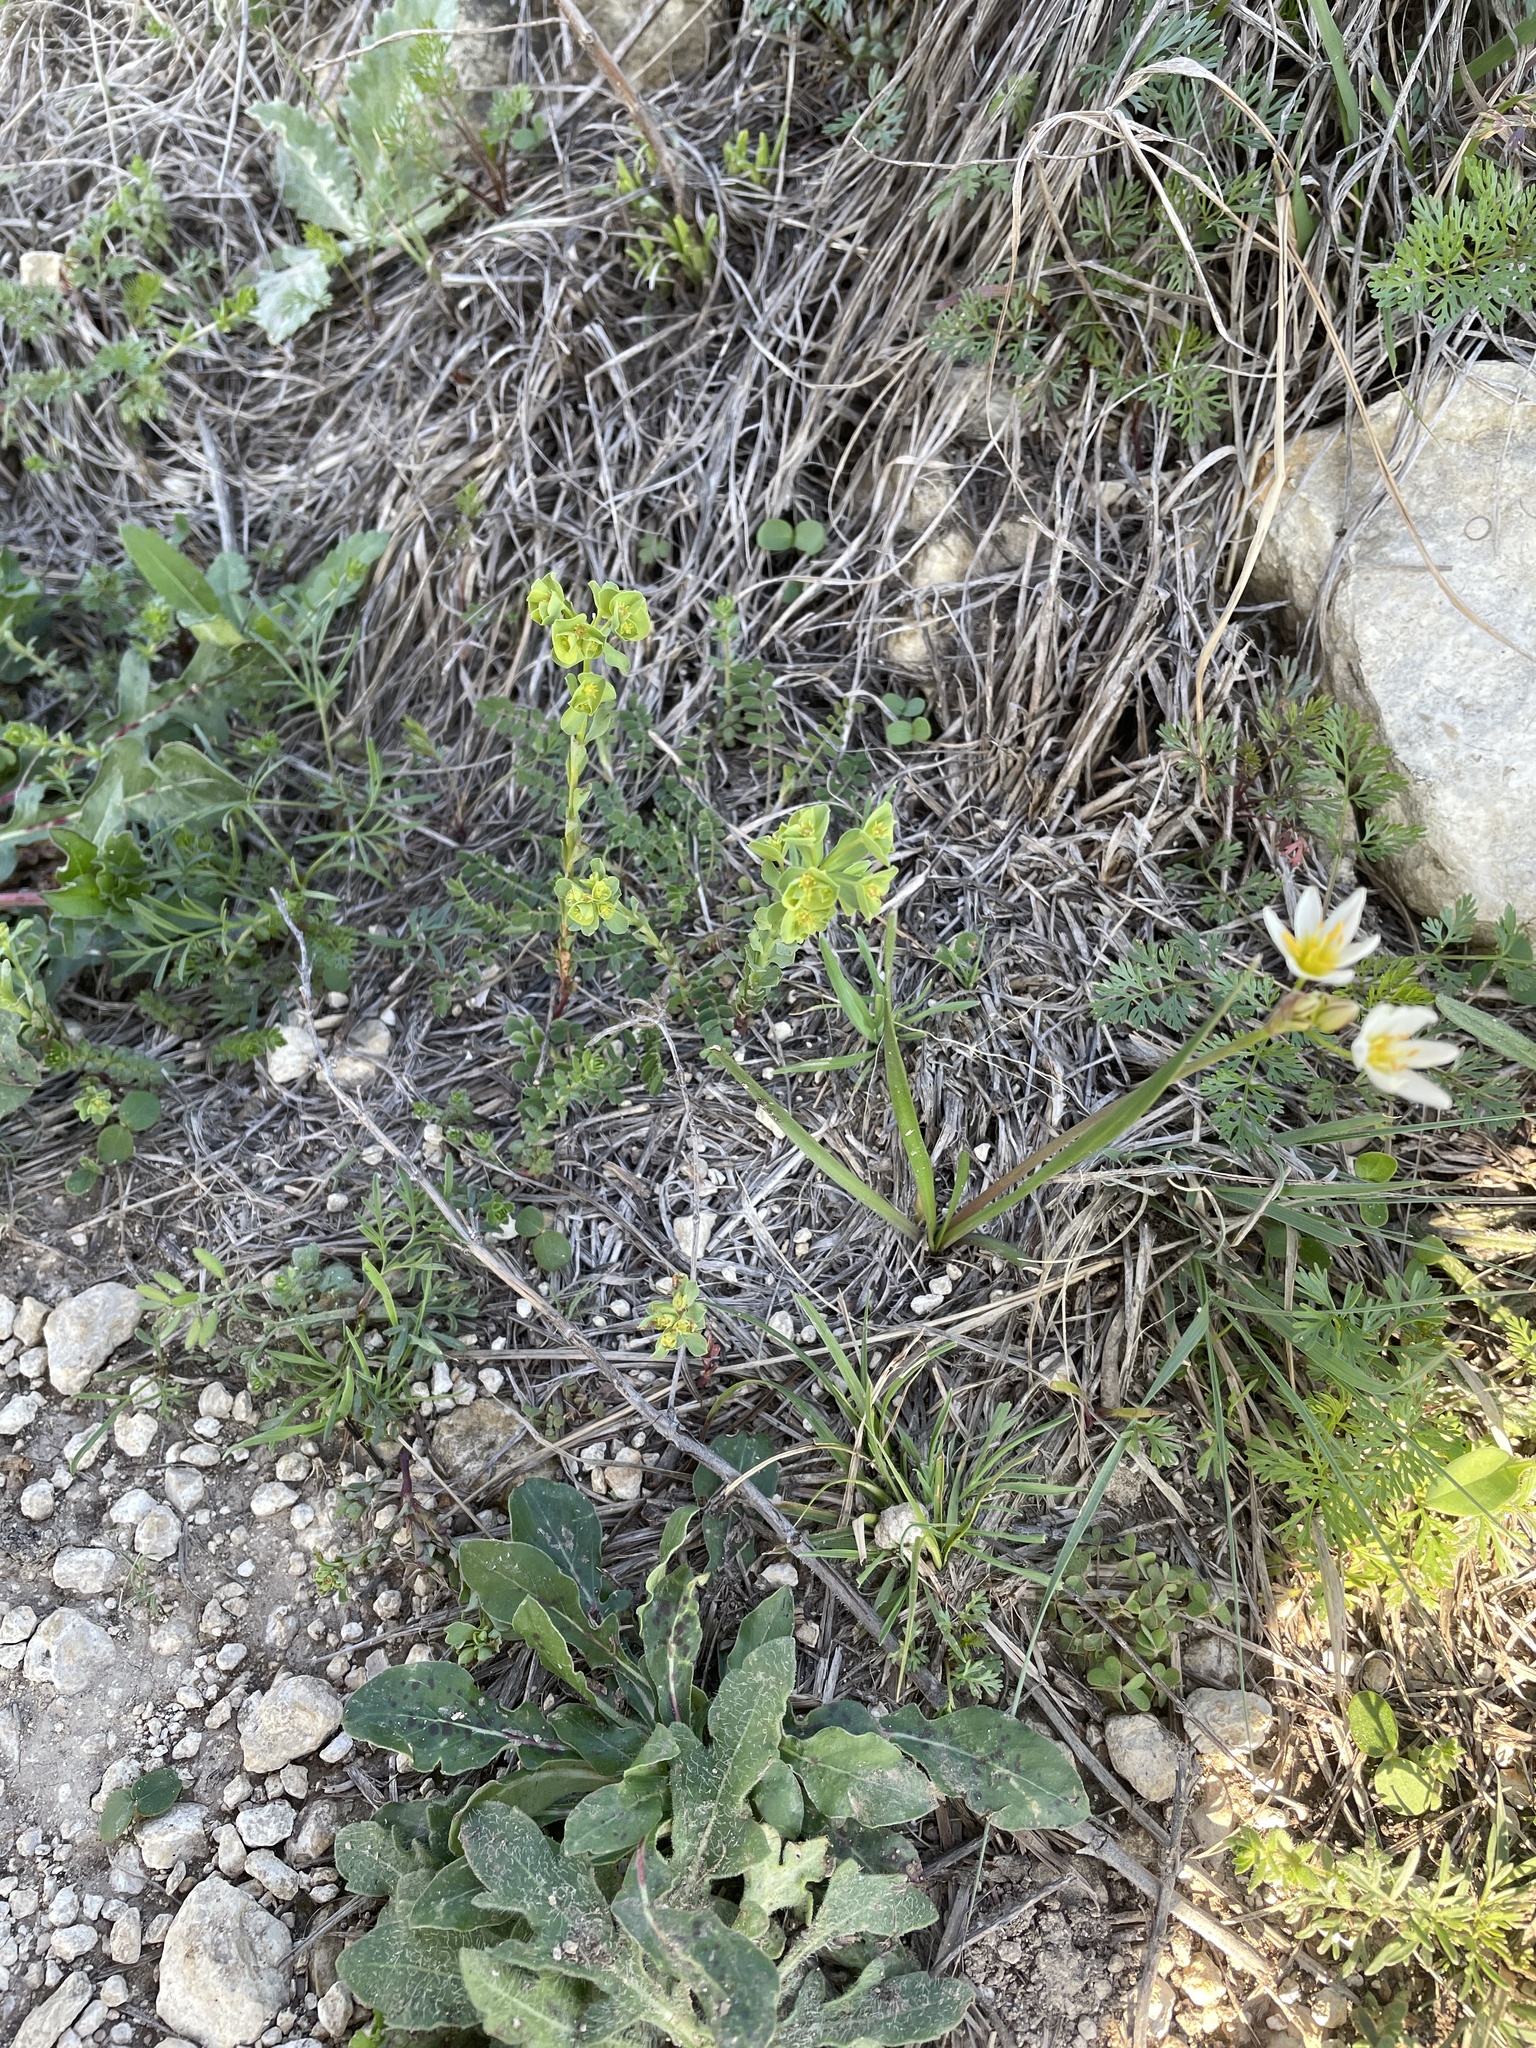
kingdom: Plantae
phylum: Tracheophyta
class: Magnoliopsida
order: Malpighiales
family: Euphorbiaceae
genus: Euphorbia
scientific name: Euphorbia longicruris
